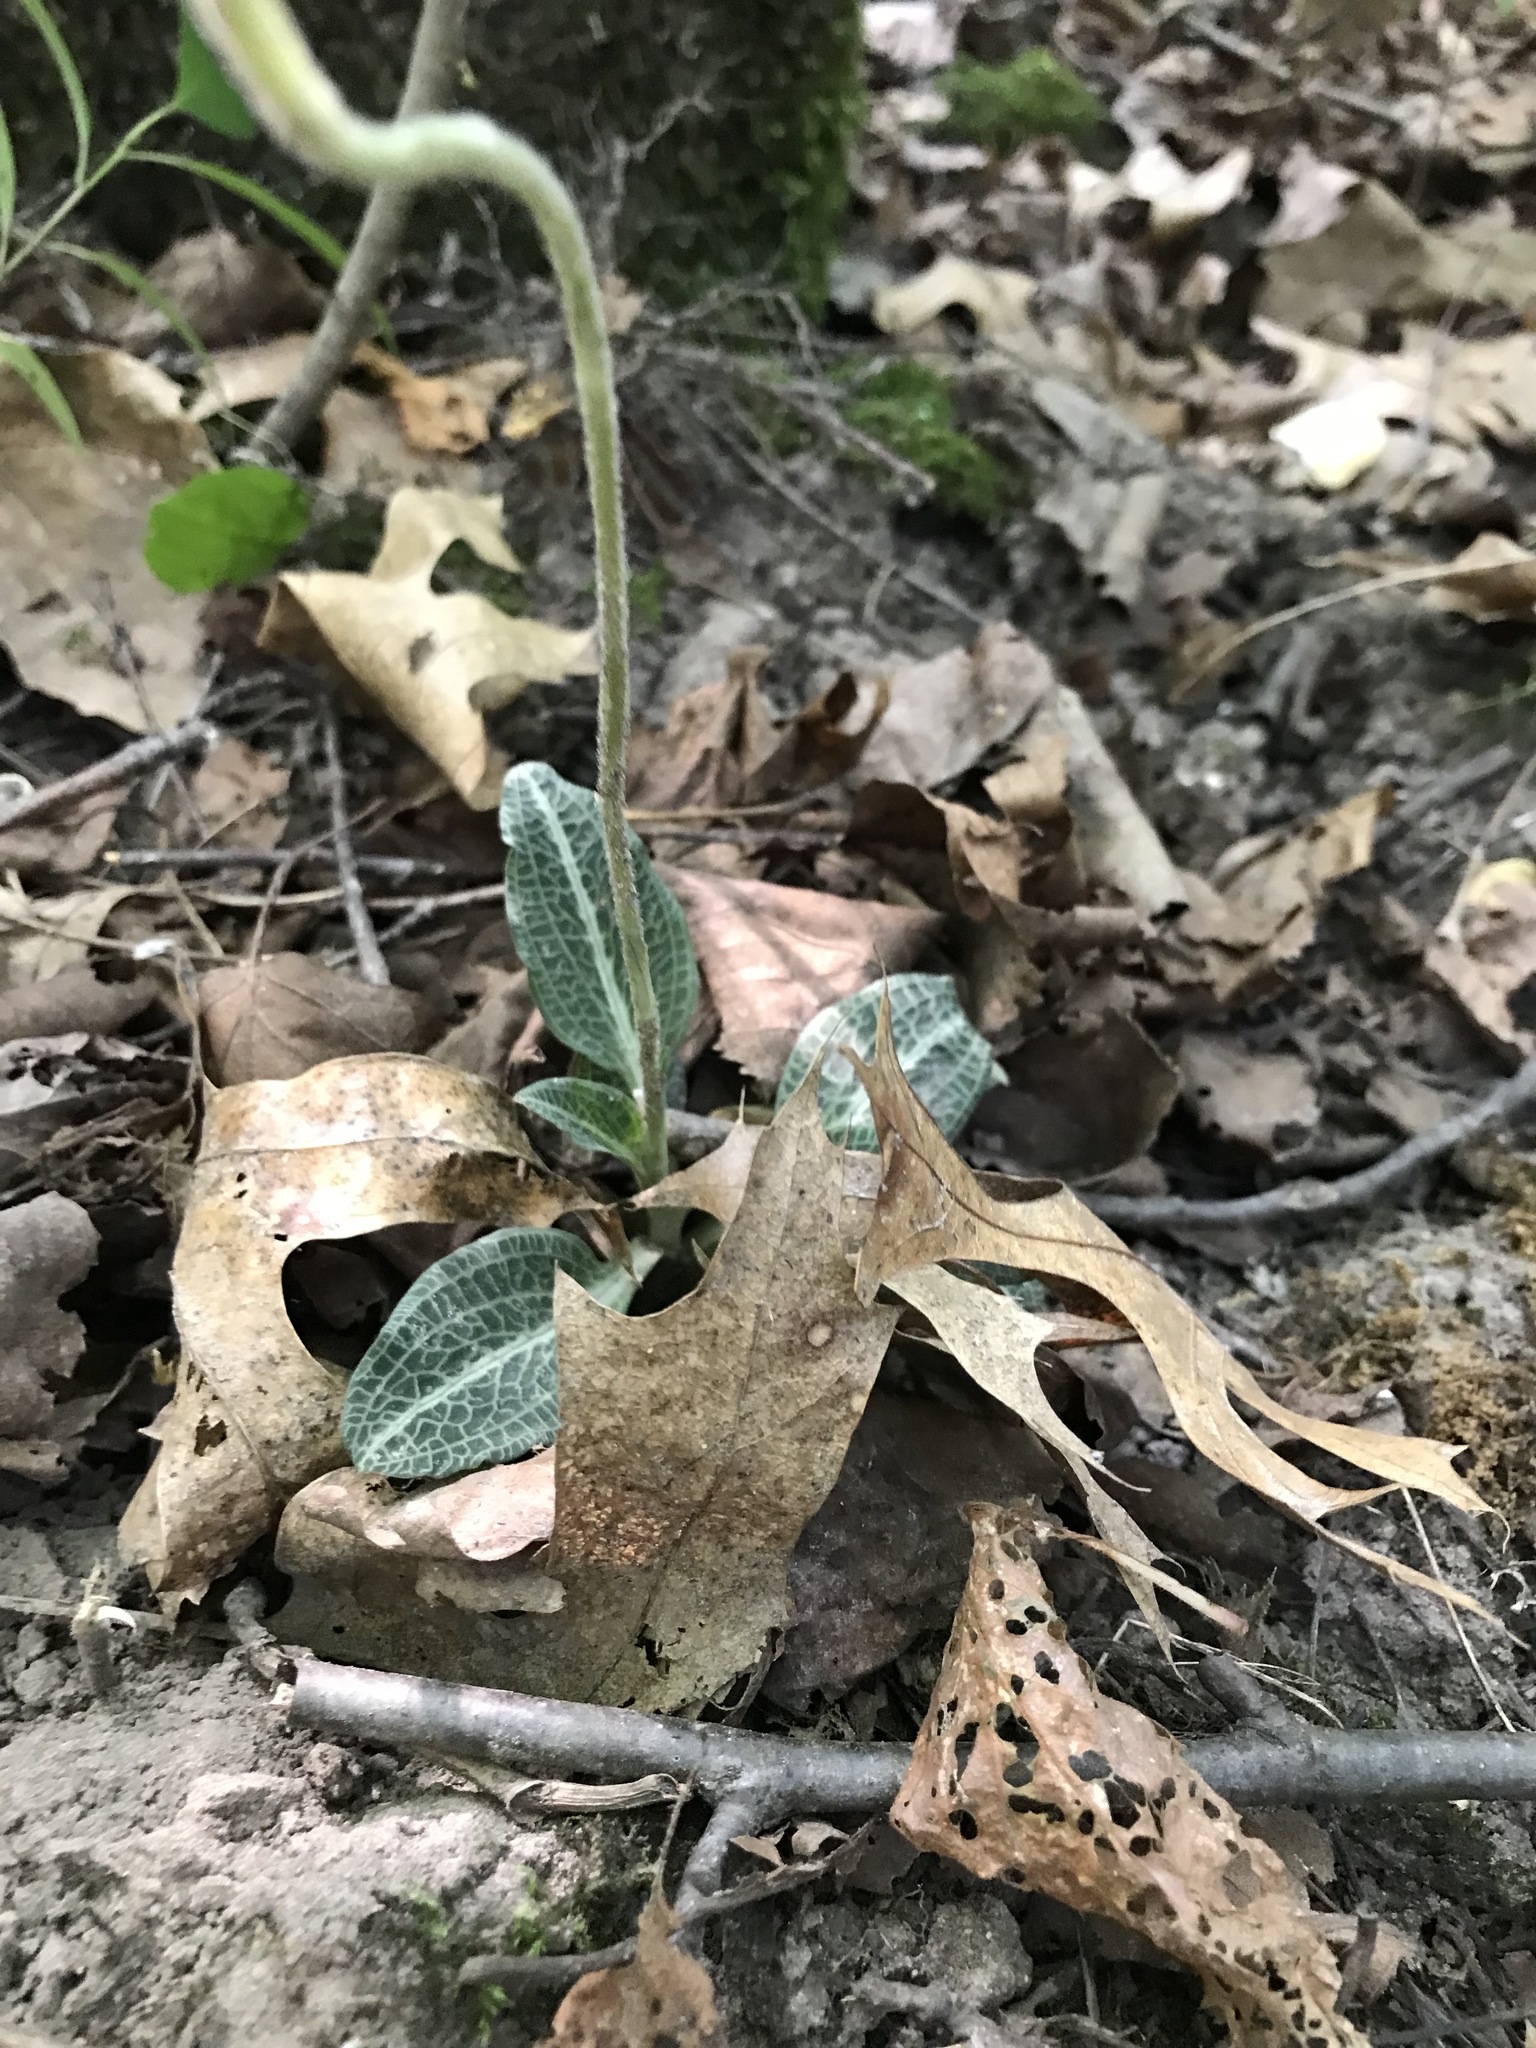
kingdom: Plantae
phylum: Tracheophyta
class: Liliopsida
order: Asparagales
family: Orchidaceae
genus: Goodyera
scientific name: Goodyera pubescens
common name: Downy rattlesnake-plantain
